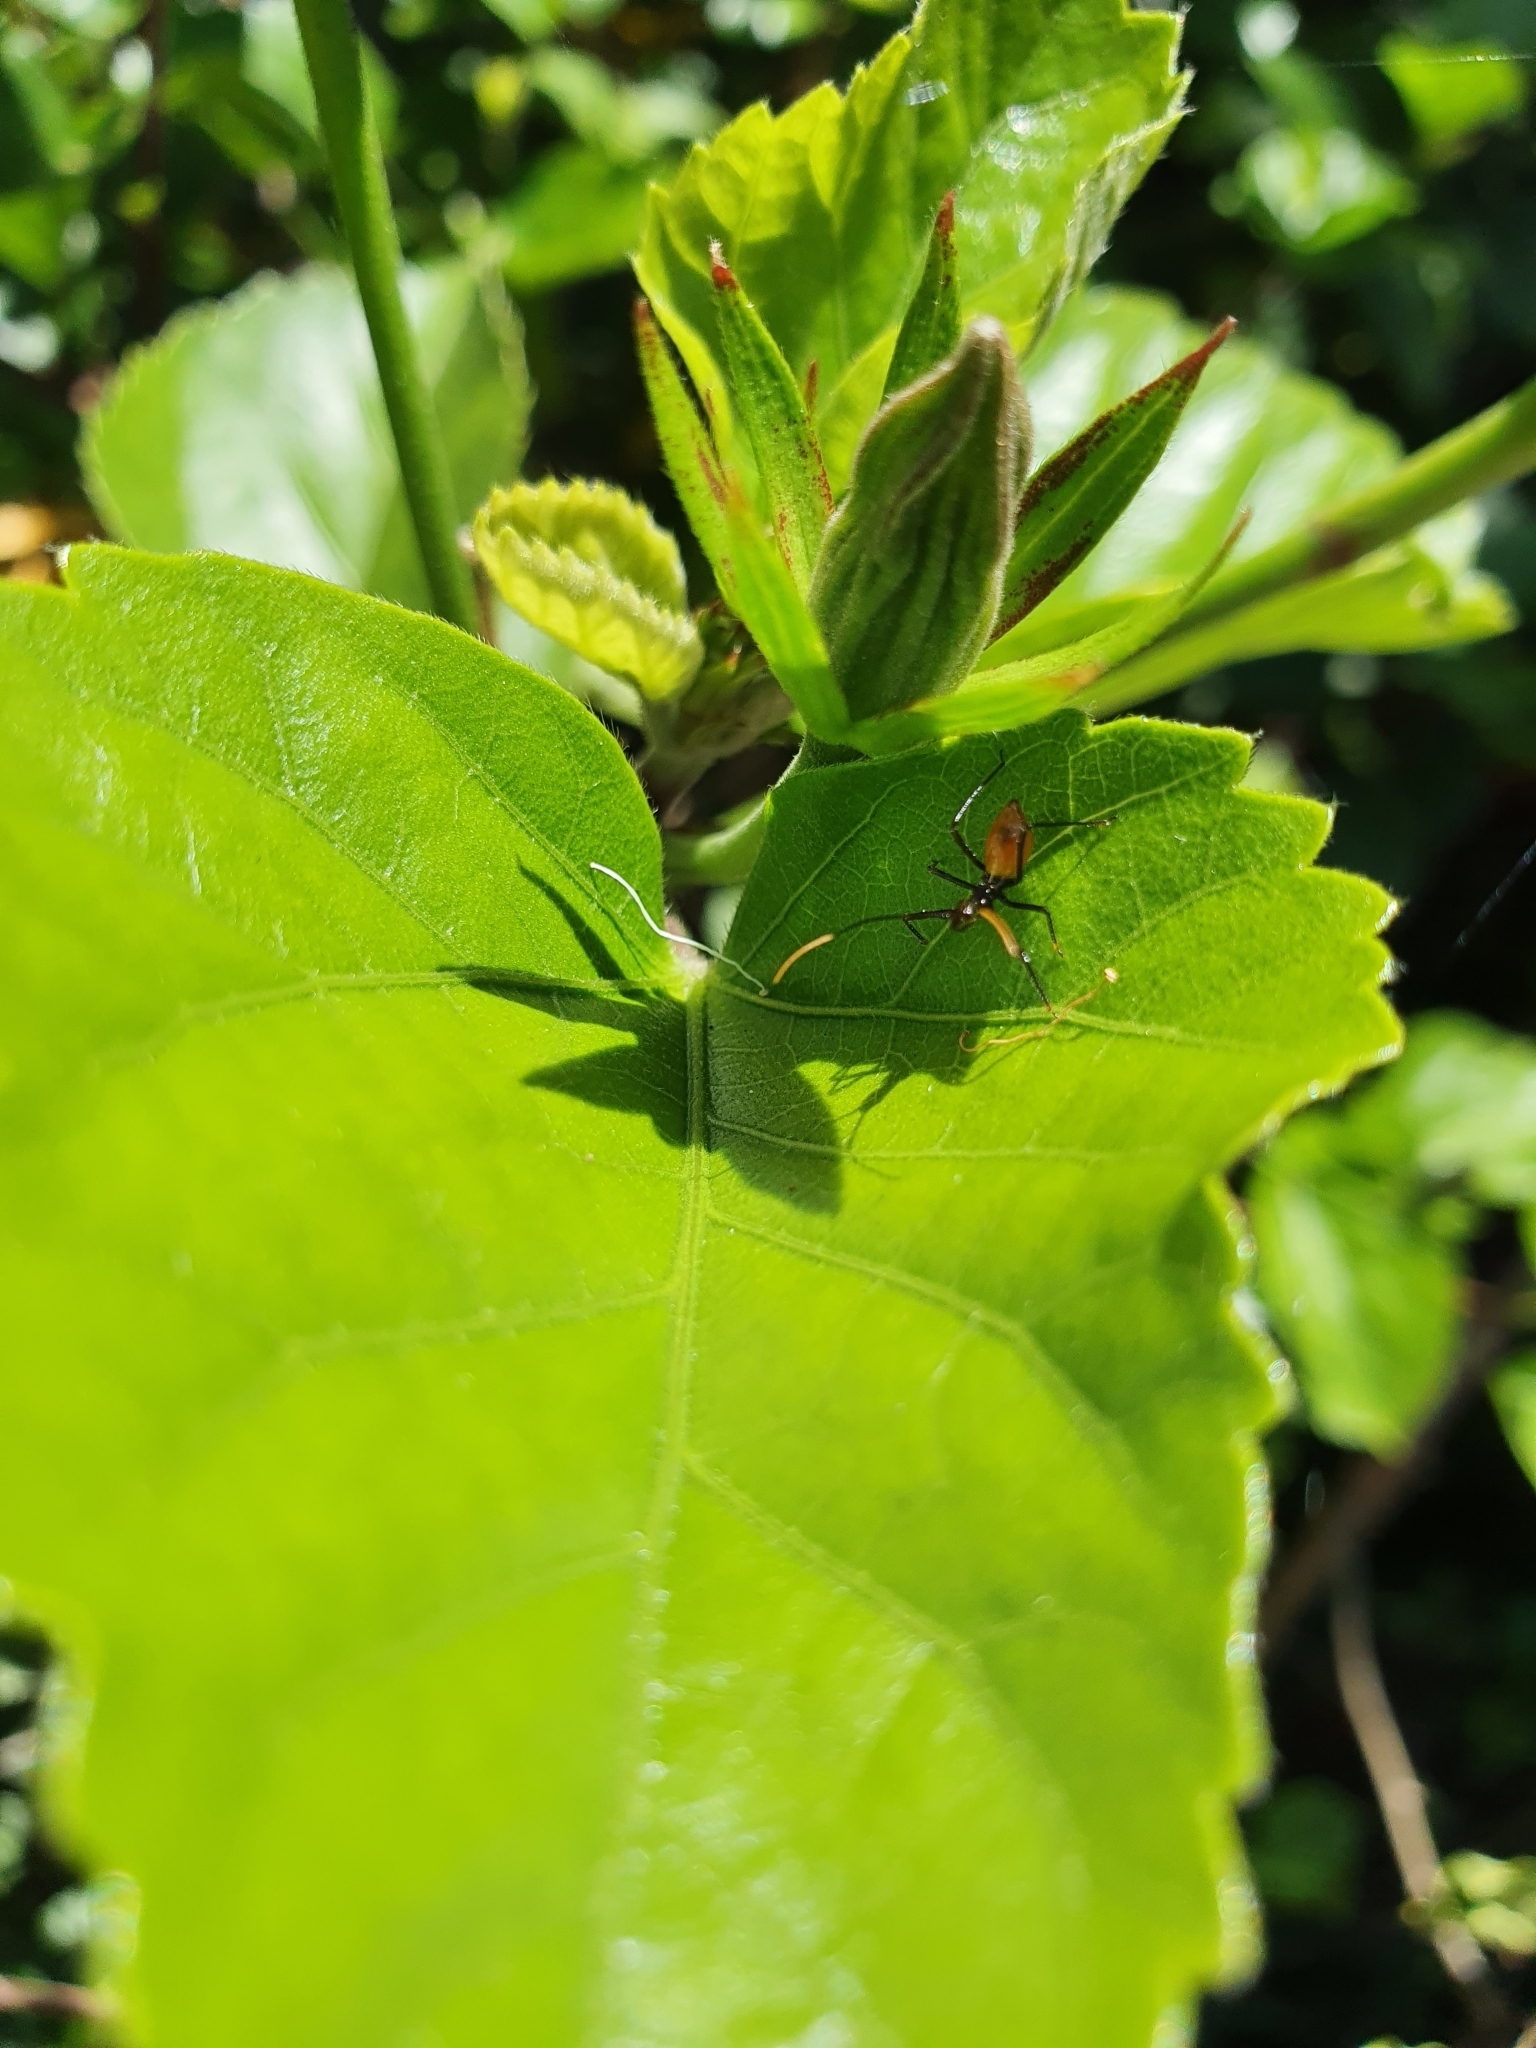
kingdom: Animalia
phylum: Arthropoda
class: Insecta
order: Hemiptera
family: Reduviidae
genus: Pristhesancus
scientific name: Pristhesancus plagipennis
